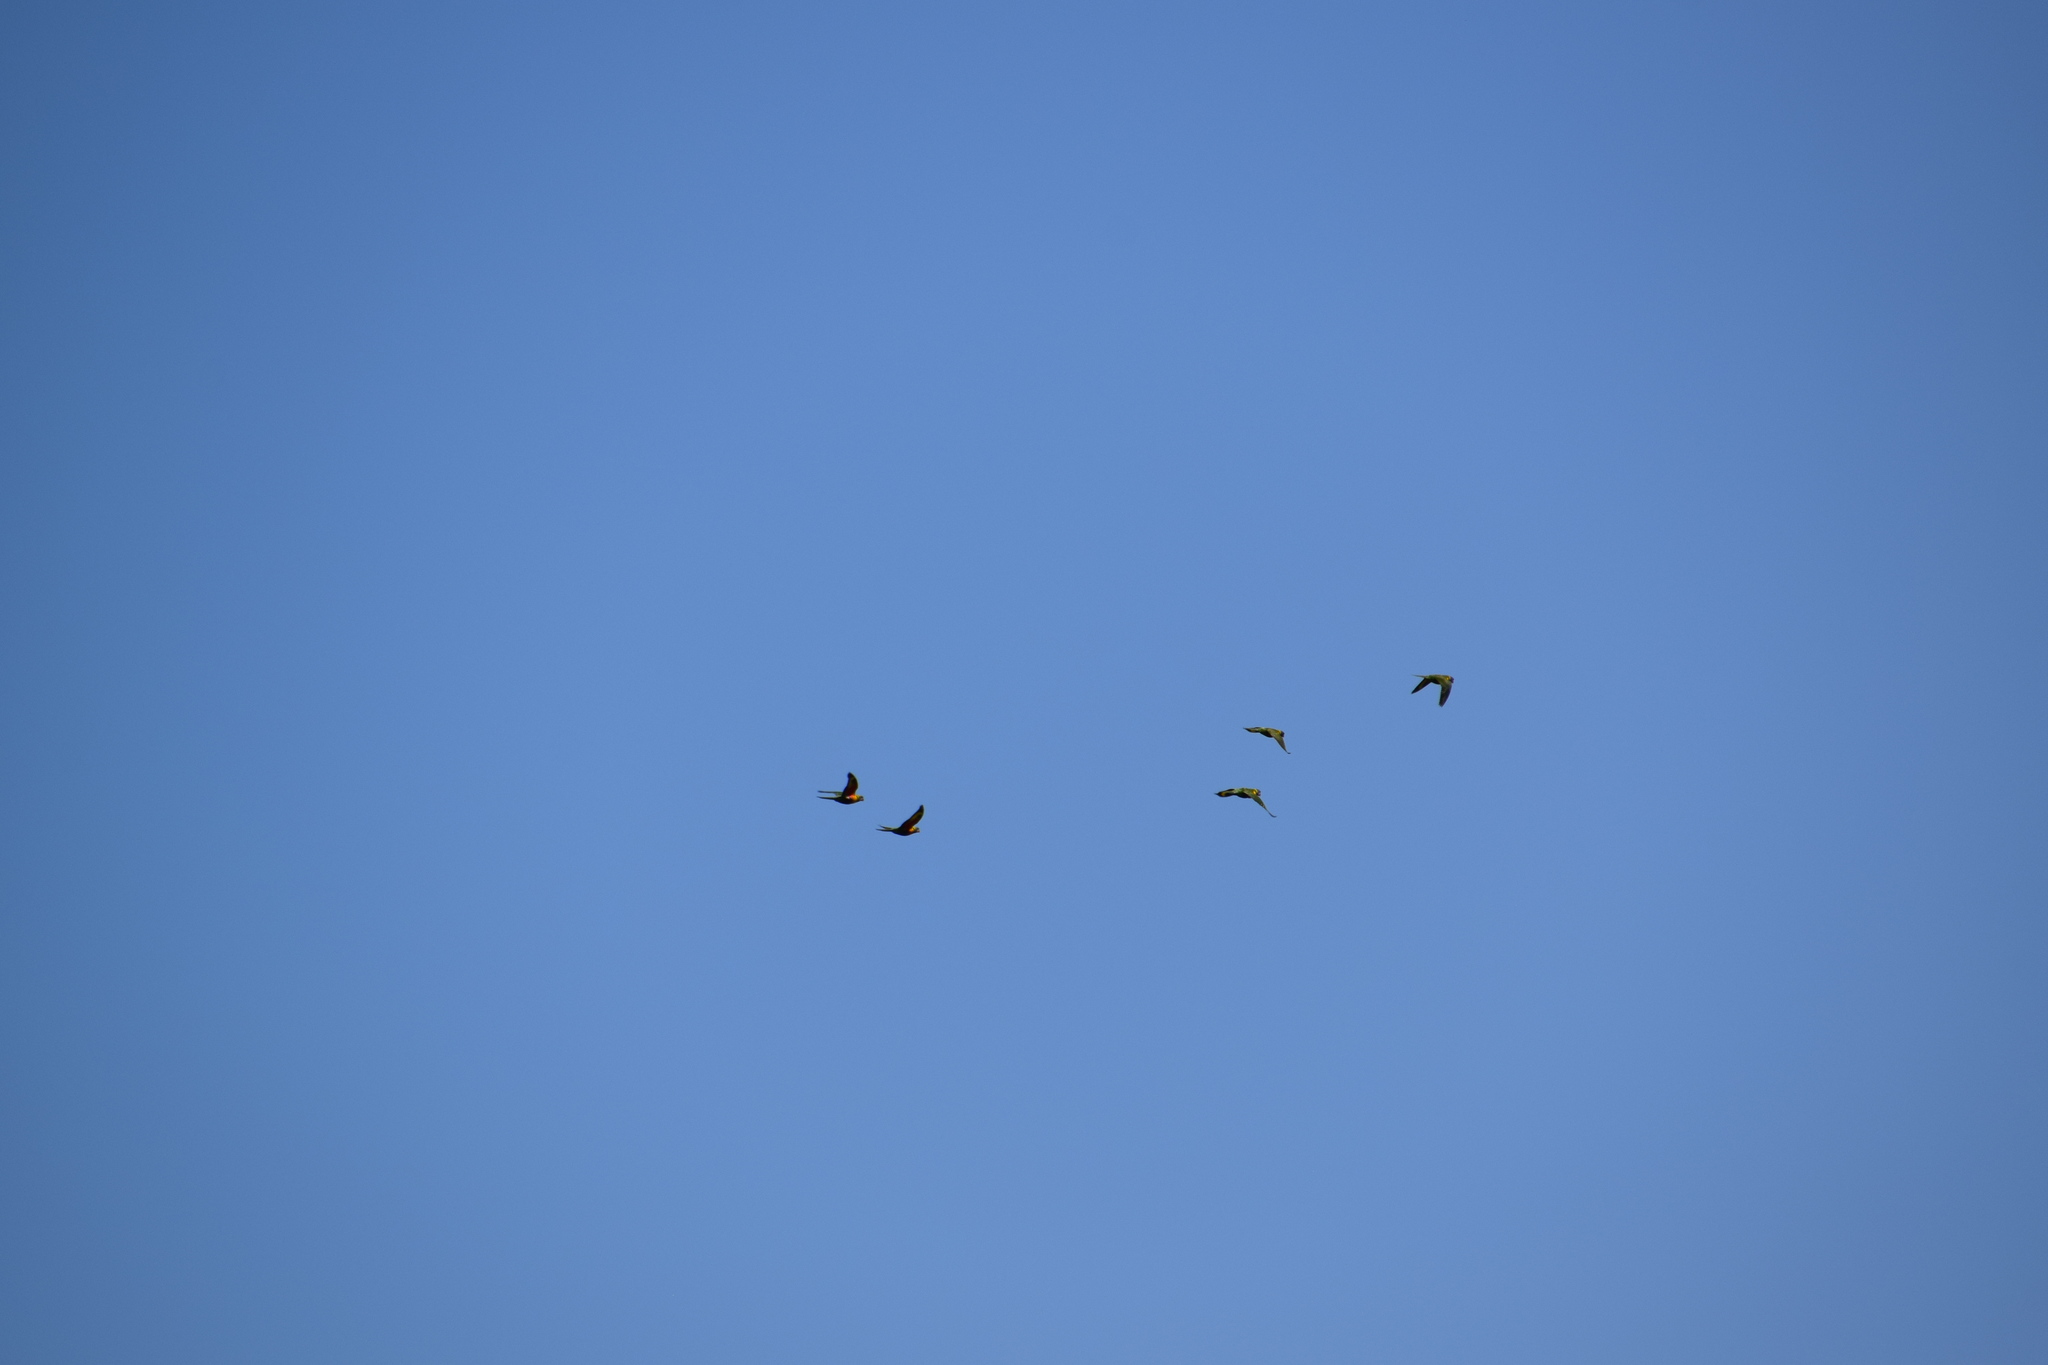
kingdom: Animalia
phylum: Chordata
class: Aves
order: Psittaciformes
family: Psittacidae
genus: Trichoglossus
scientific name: Trichoglossus haematodus
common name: Coconut lorikeet
